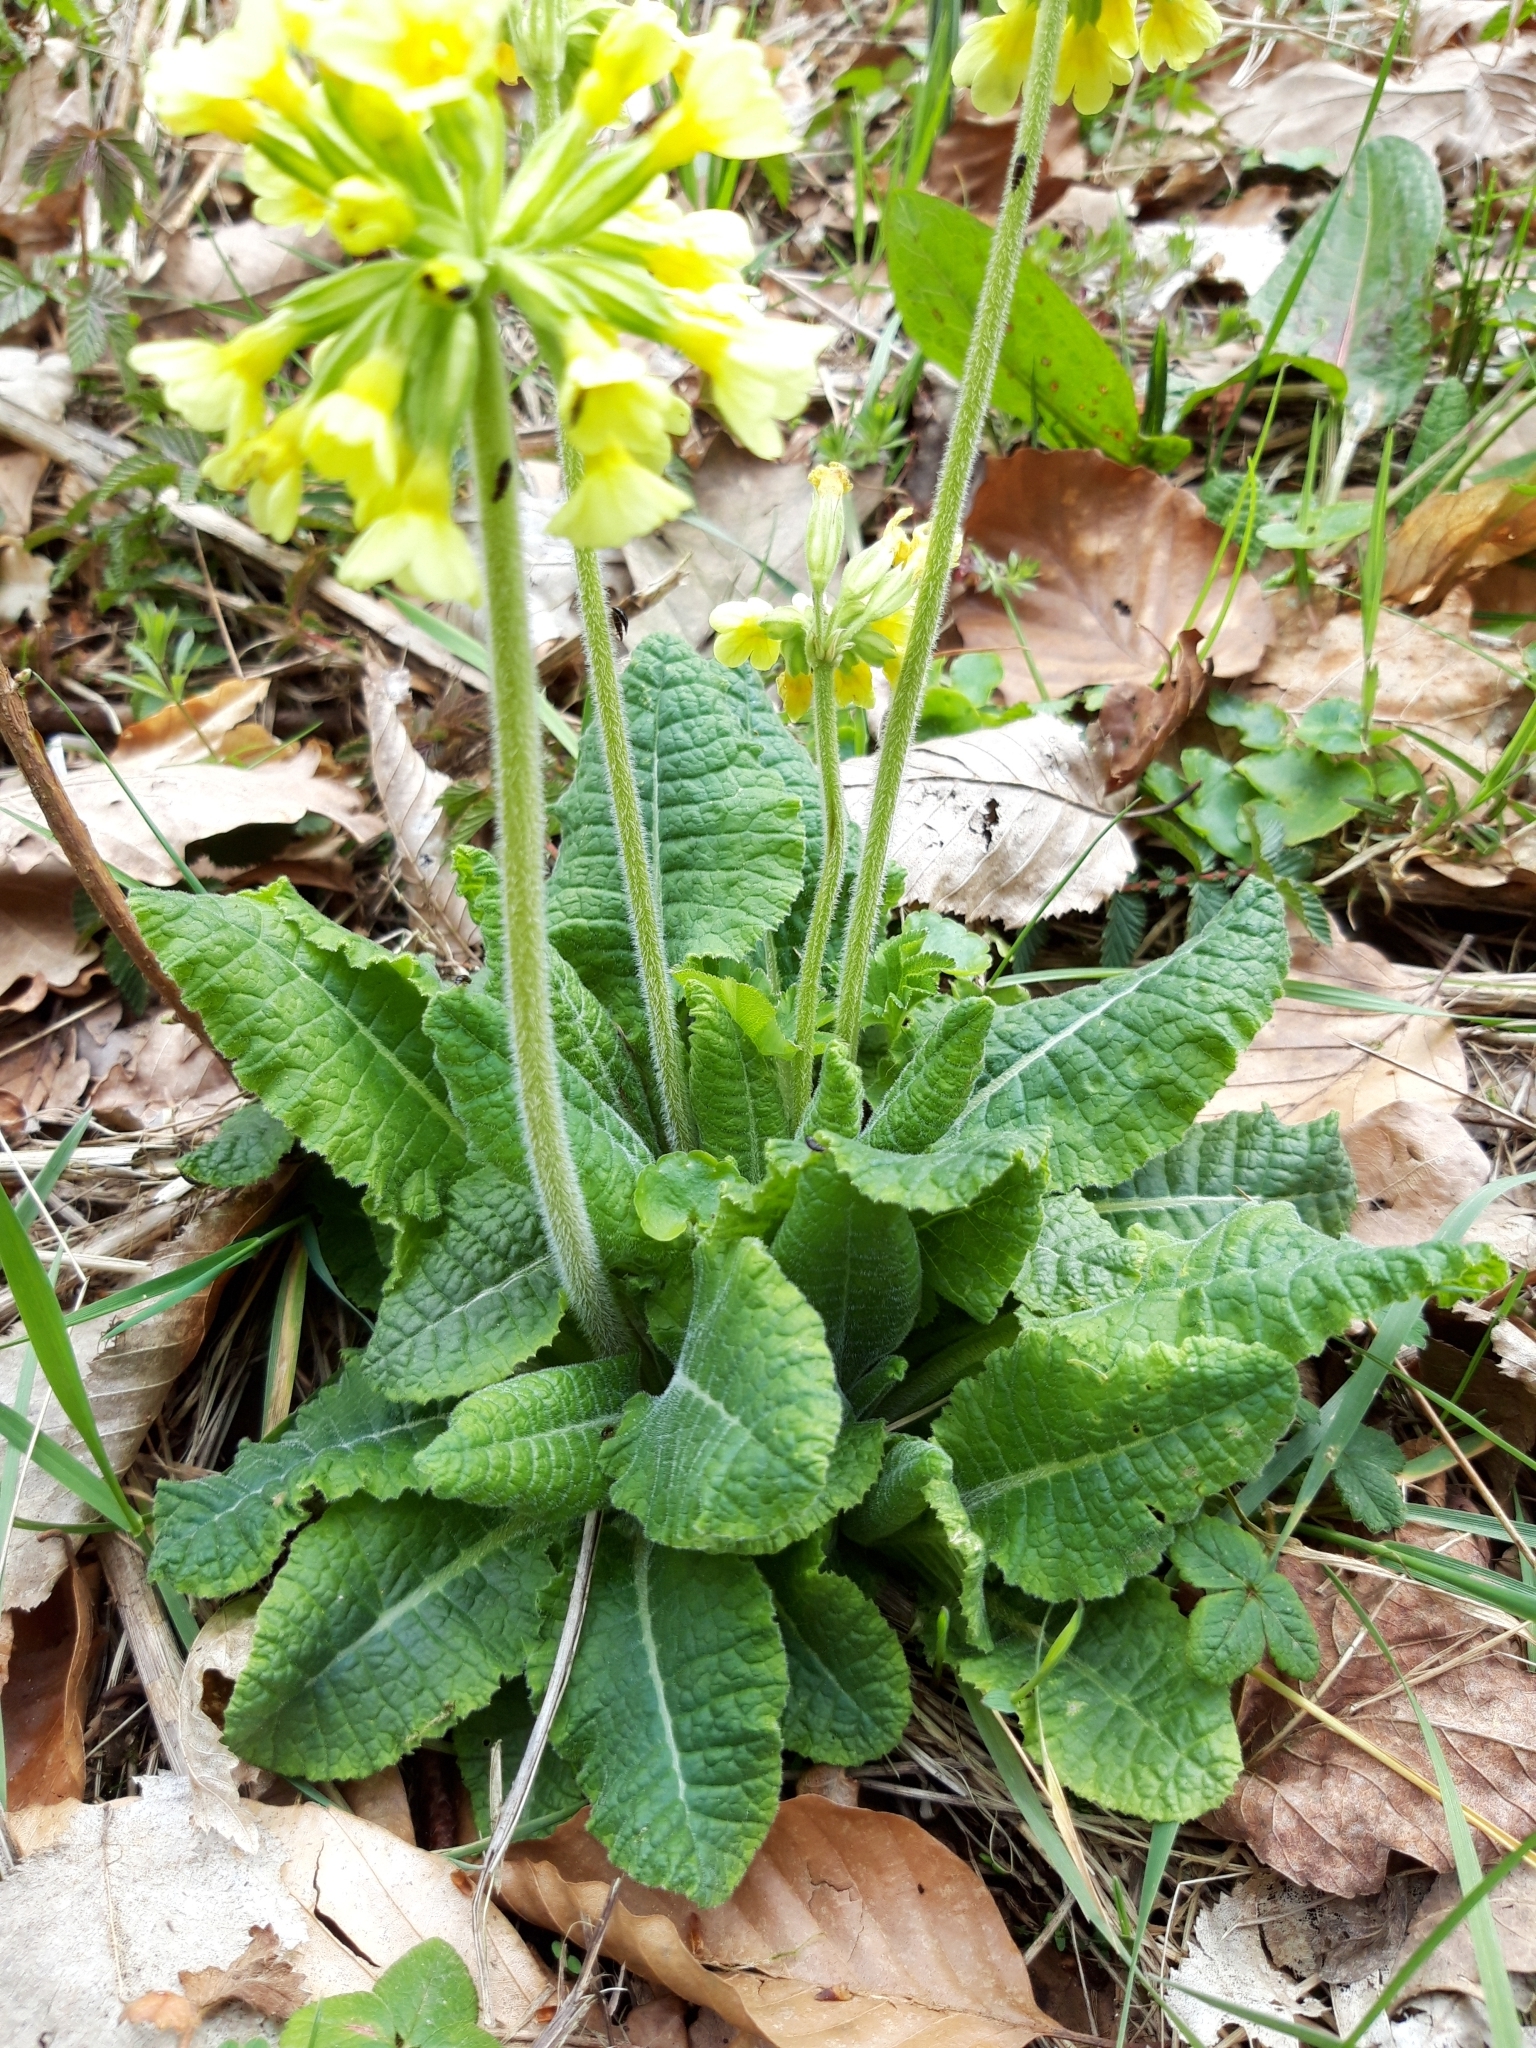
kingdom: Plantae
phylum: Tracheophyta
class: Magnoliopsida
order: Ericales
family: Primulaceae
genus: Primula
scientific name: Primula elatior
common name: Oxlip
